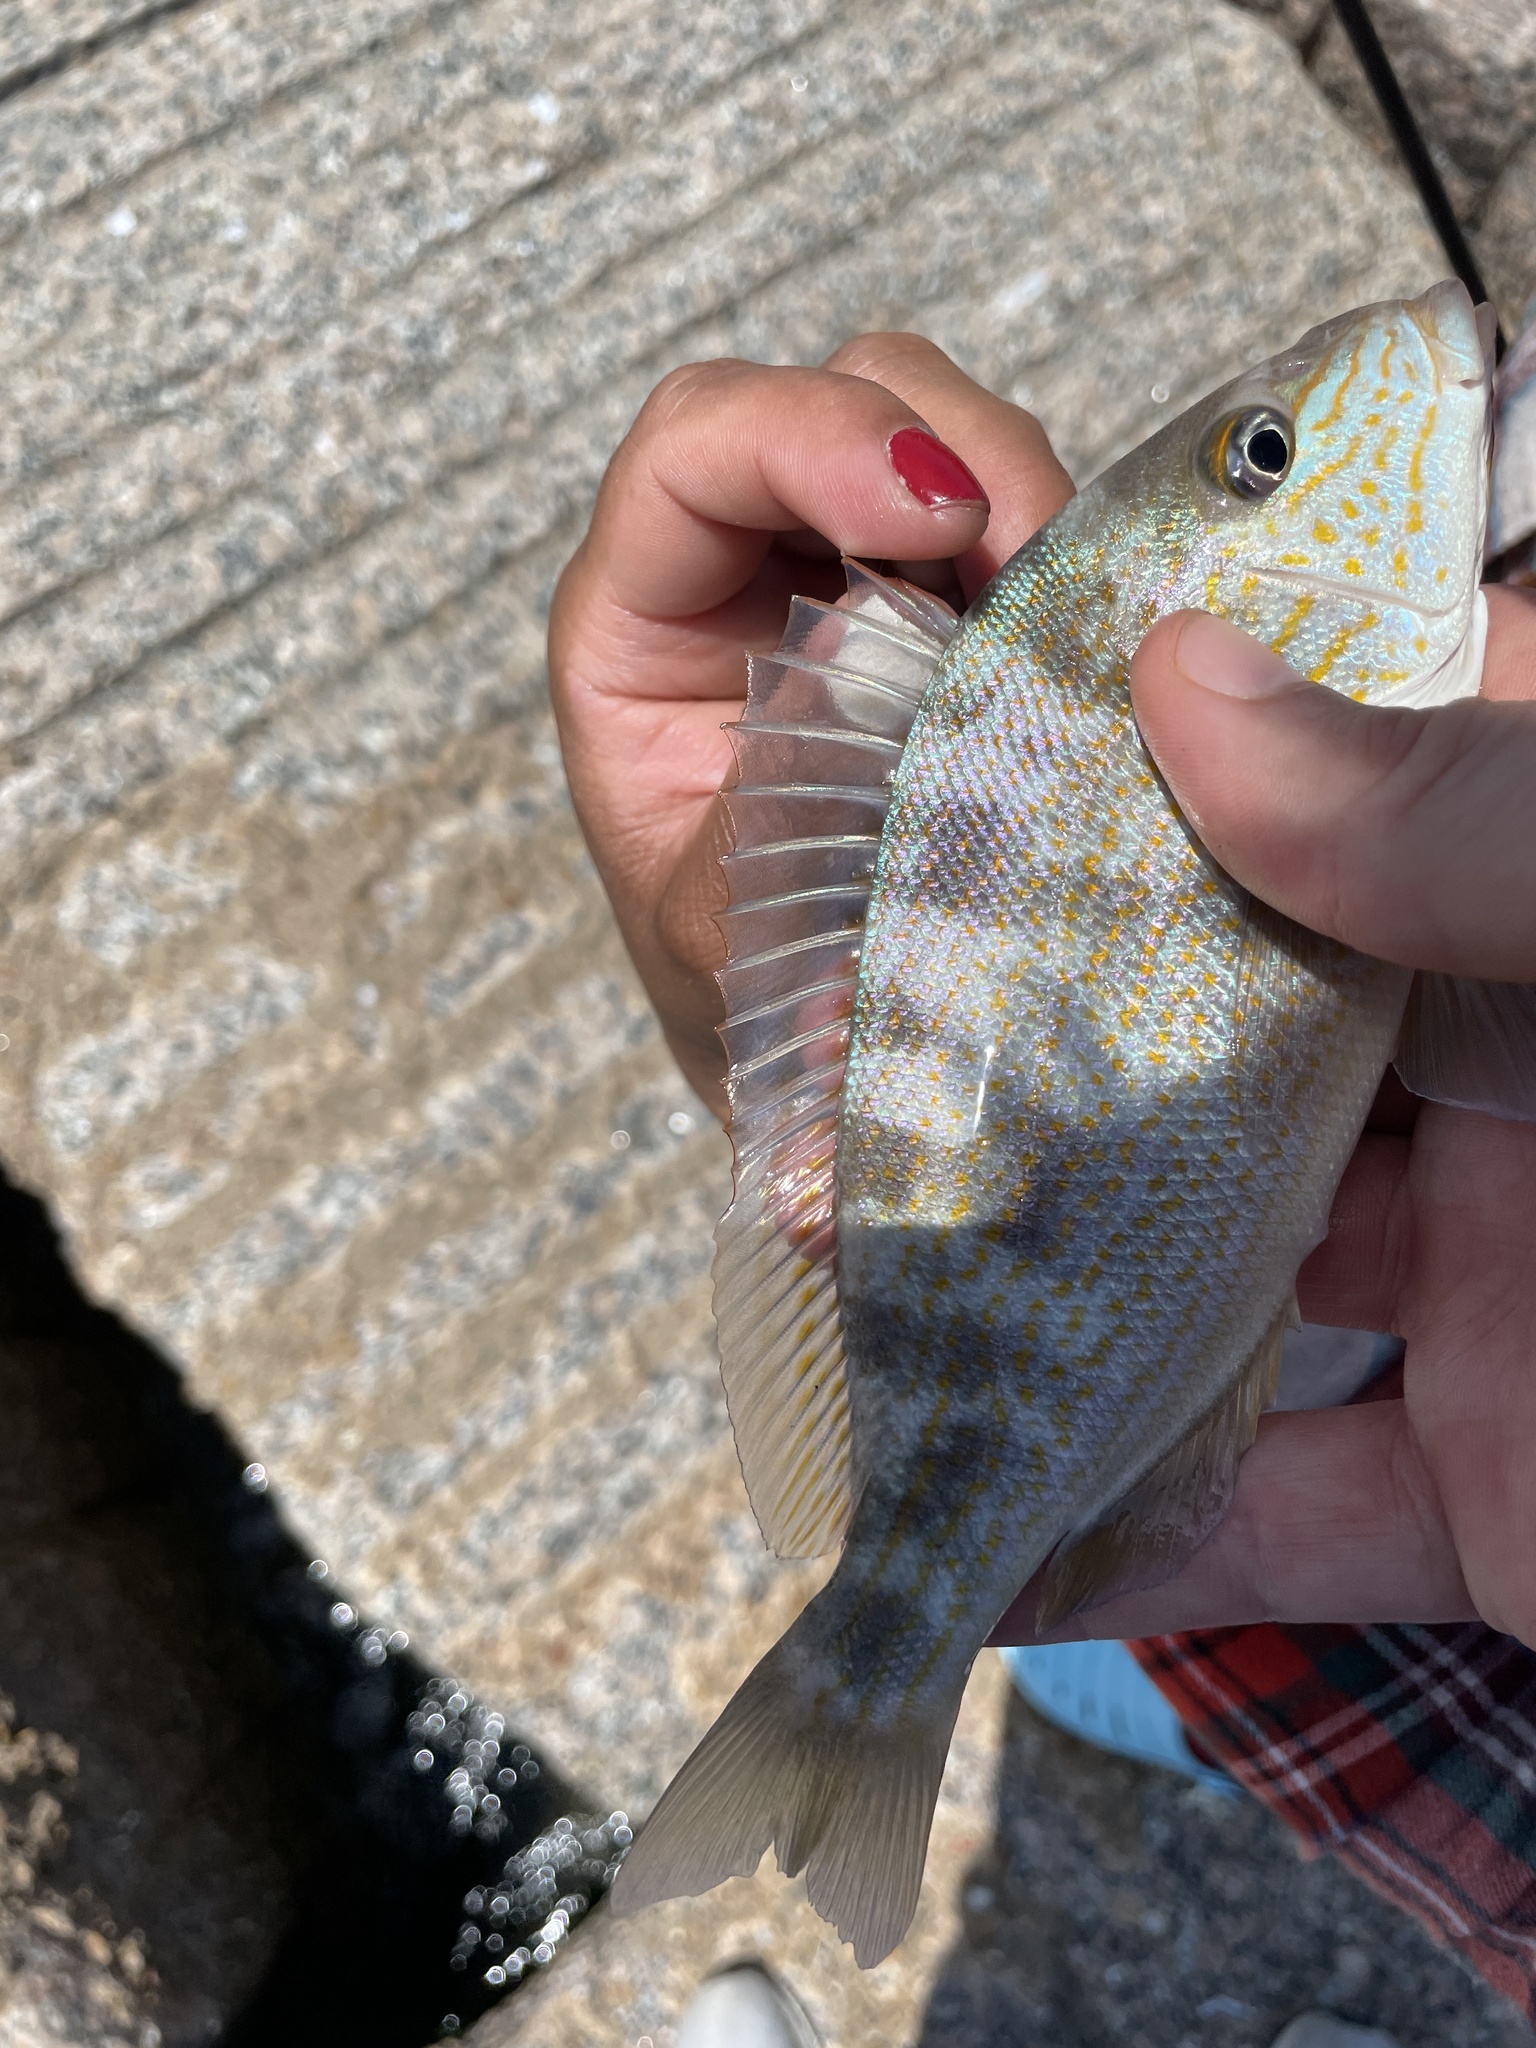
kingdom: Animalia
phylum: Chordata
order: Perciformes
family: Haemulidae
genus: Orthopristis
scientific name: Orthopristis chrysoptera
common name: Pigfish
